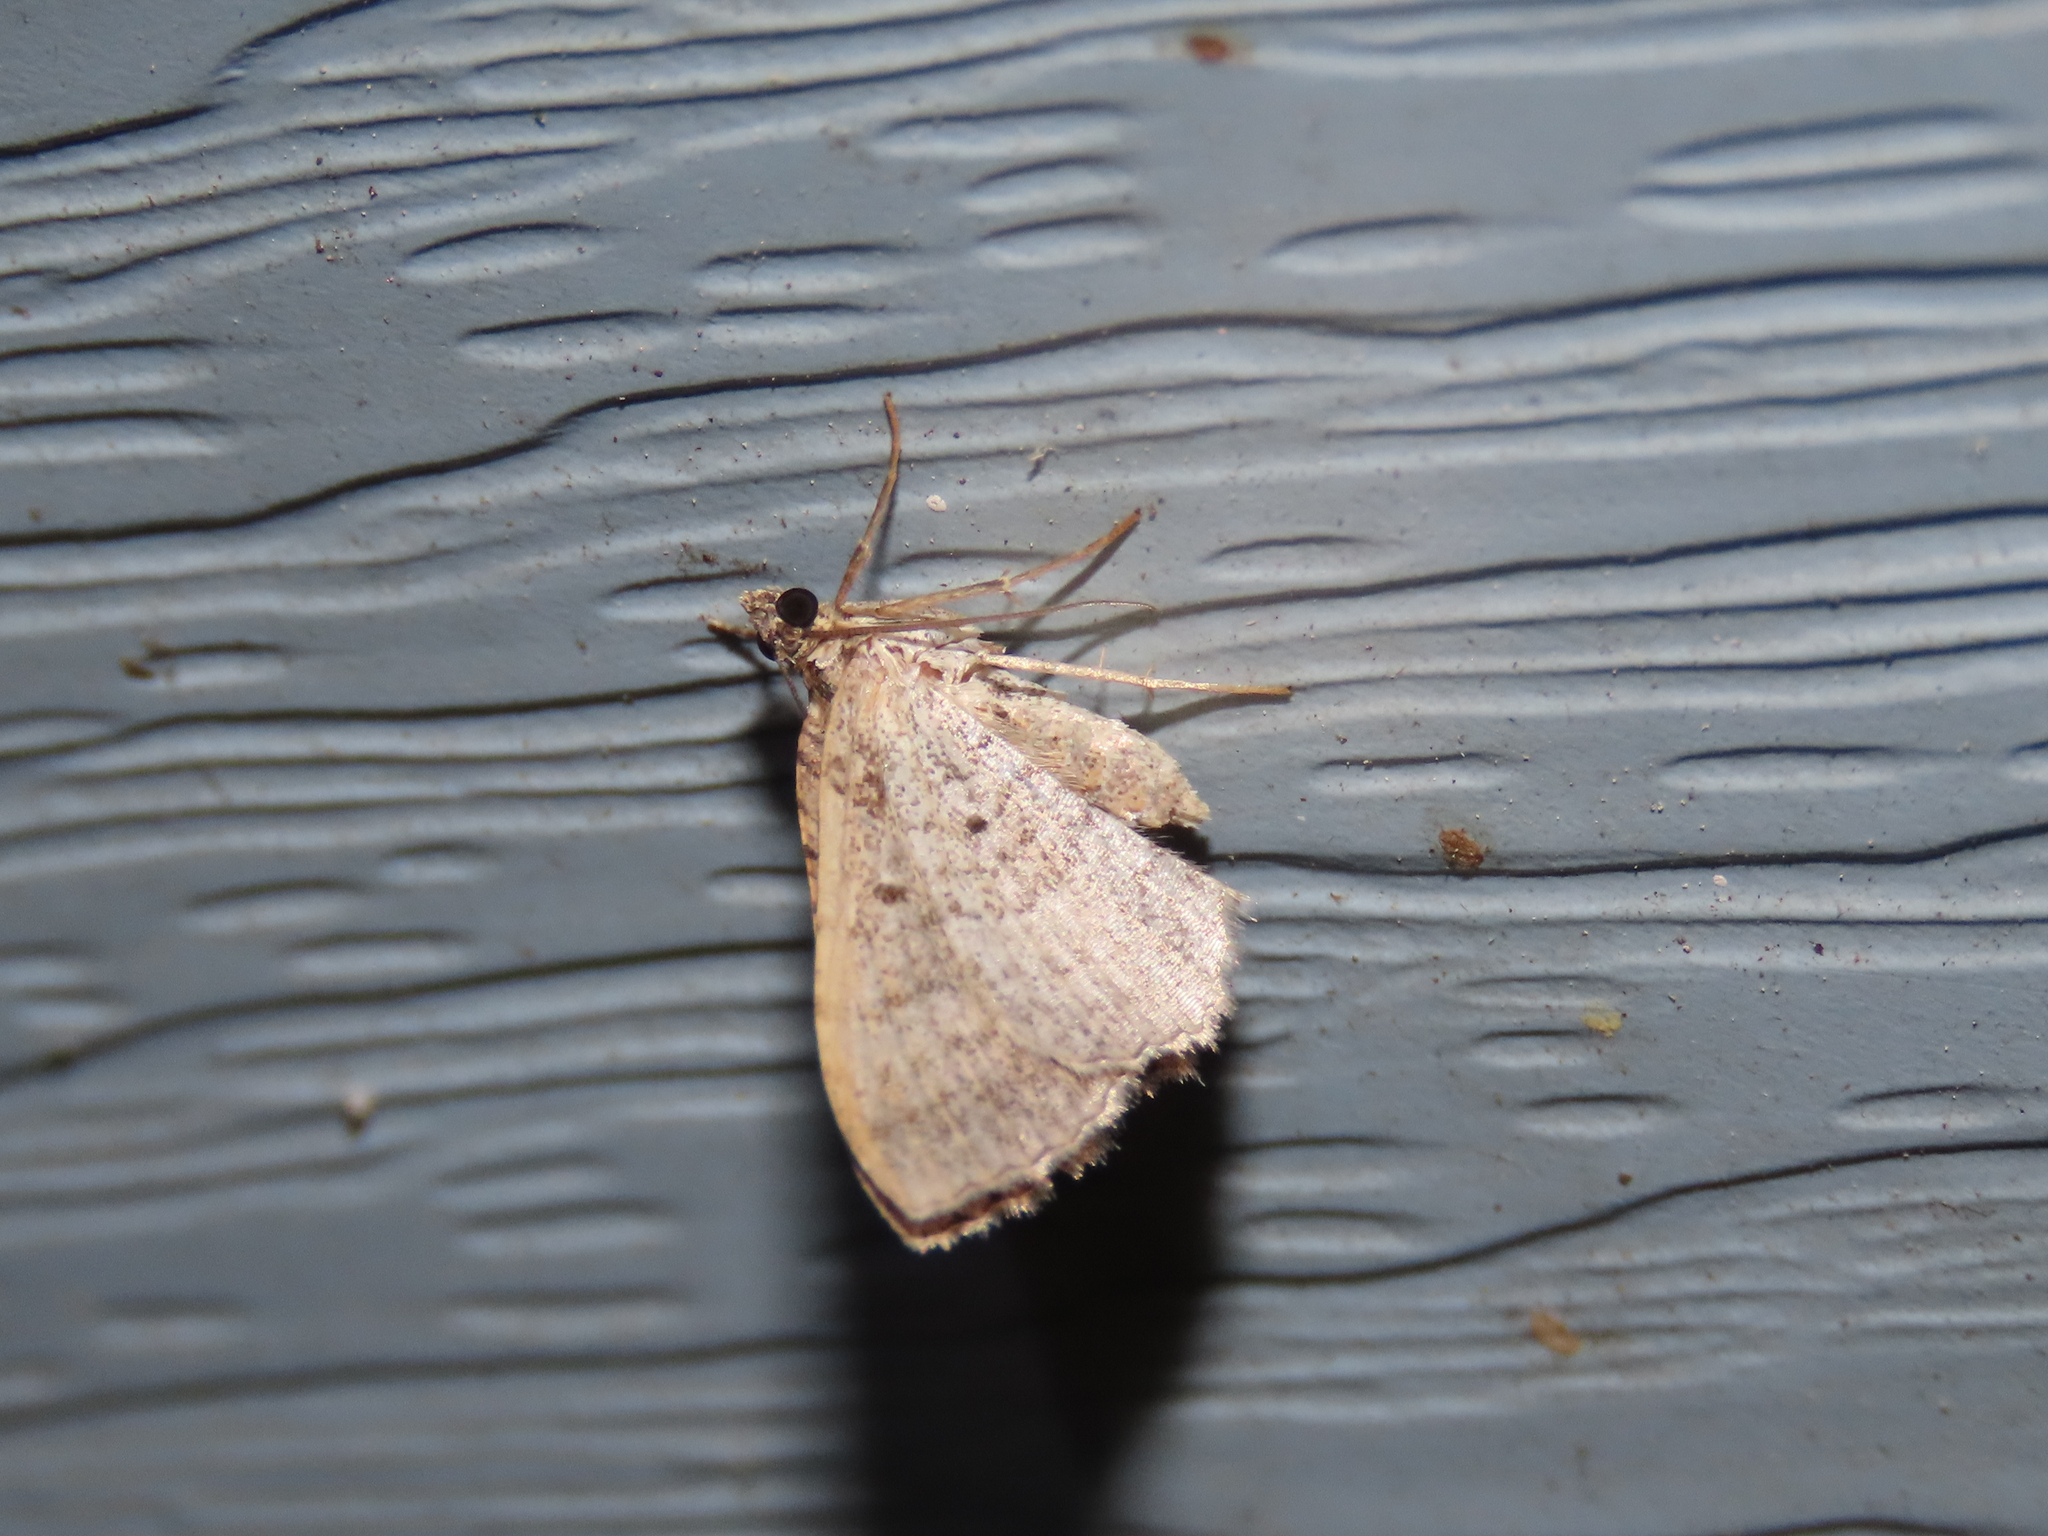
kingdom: Animalia
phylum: Arthropoda
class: Insecta
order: Lepidoptera
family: Geometridae
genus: Costaconvexa
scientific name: Costaconvexa centrostrigaria
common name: Bent-line carpet
